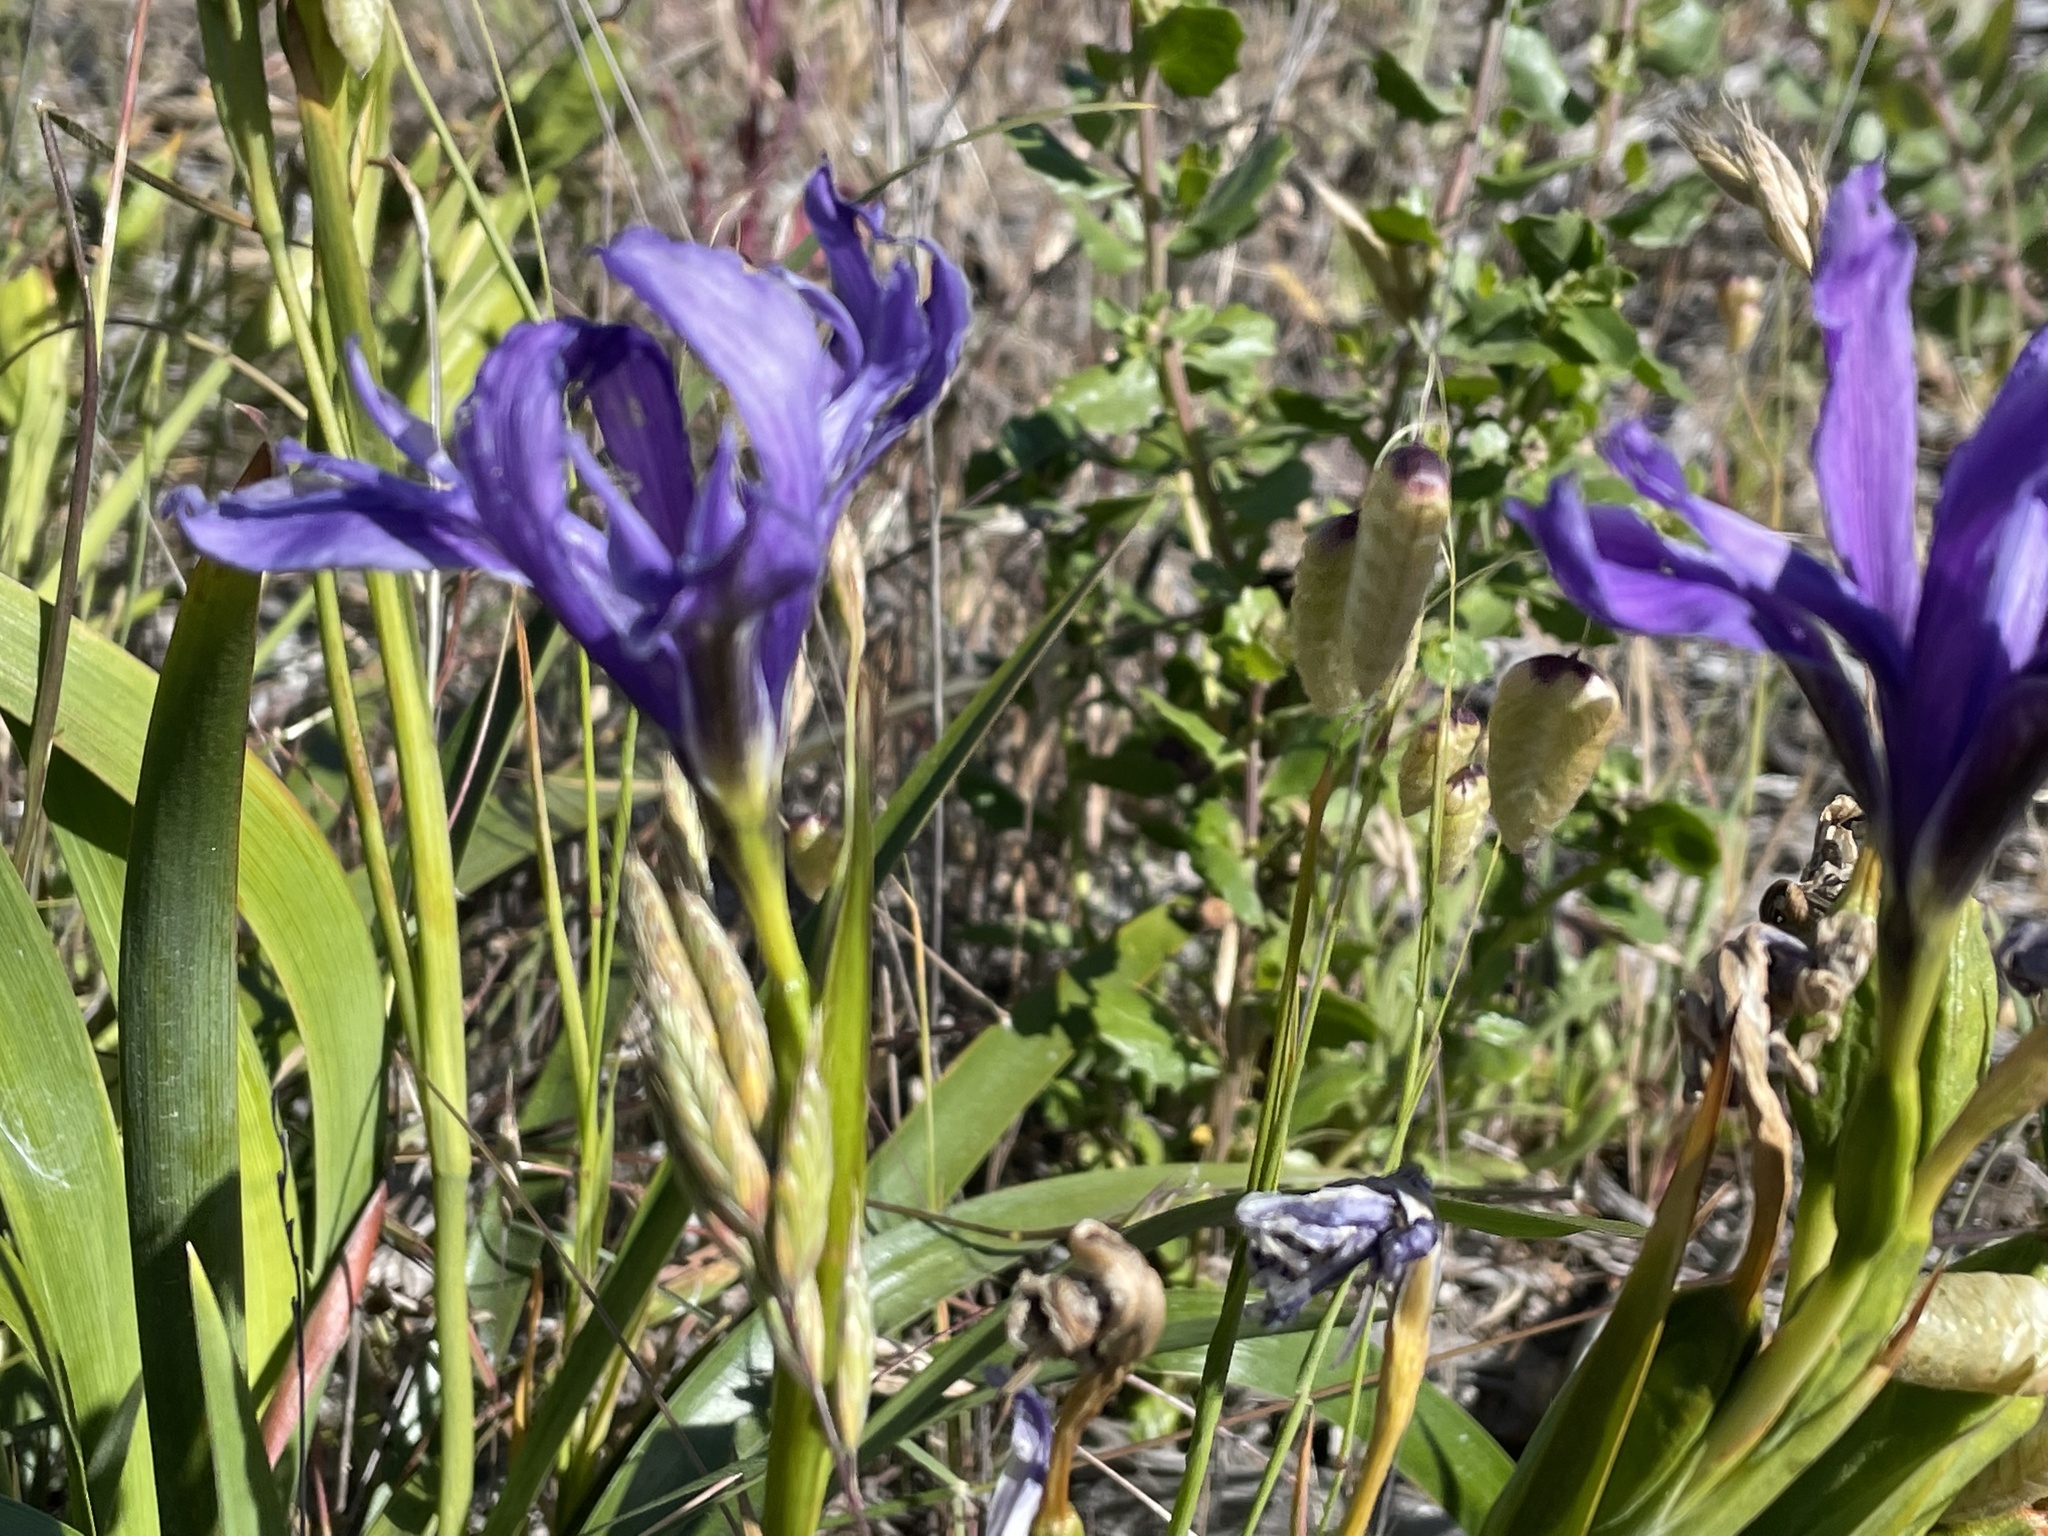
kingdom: Plantae
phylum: Tracheophyta
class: Liliopsida
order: Asparagales
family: Iridaceae
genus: Iris
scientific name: Iris douglasiana
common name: Marin iris
